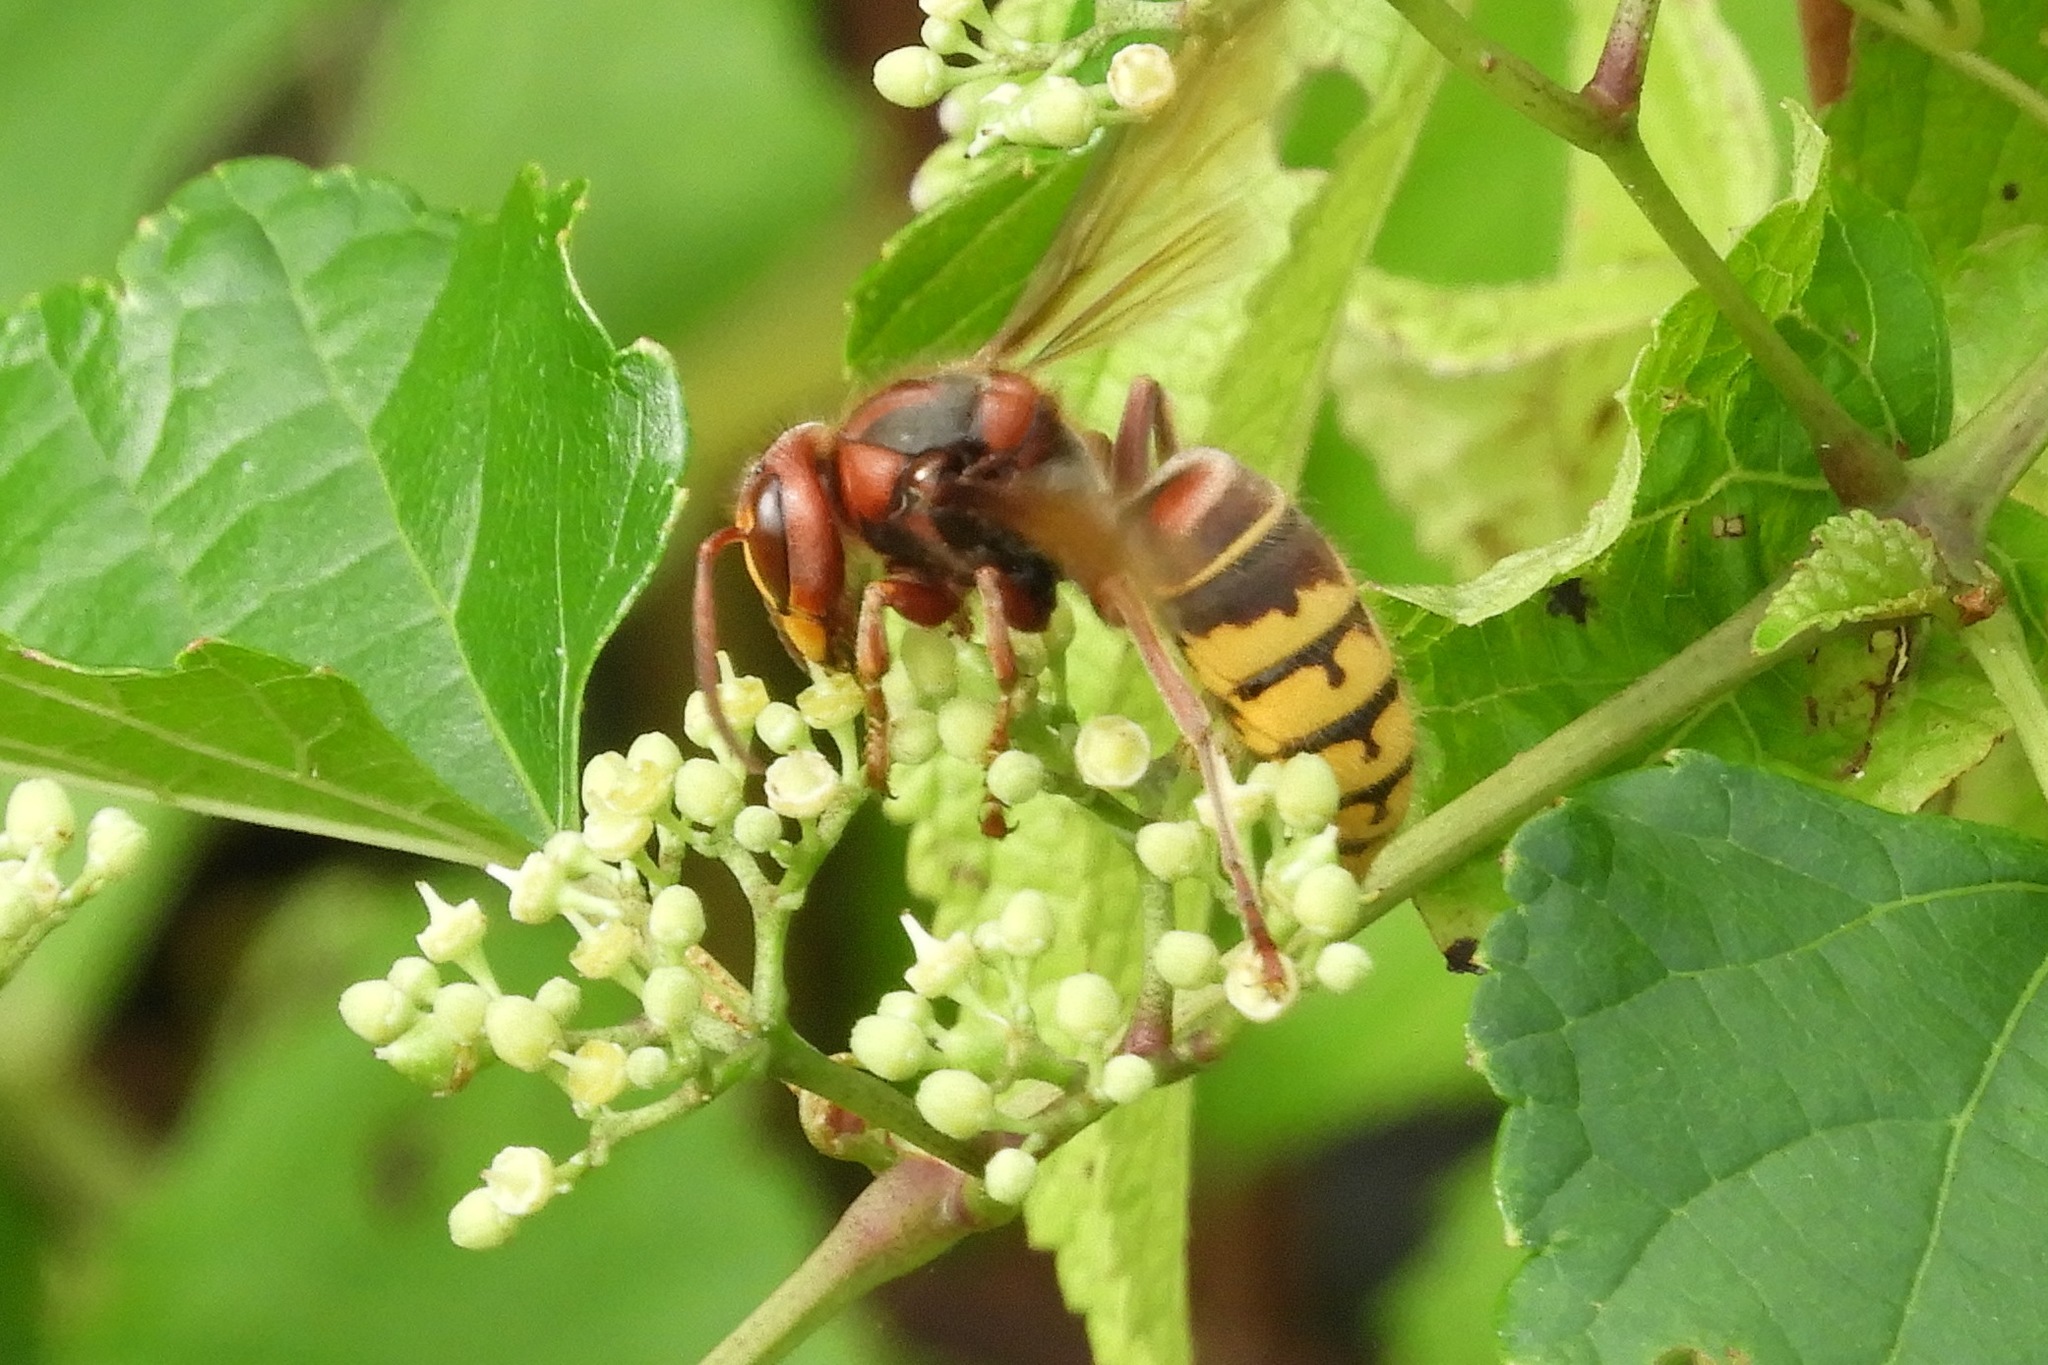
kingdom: Animalia
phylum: Arthropoda
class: Insecta
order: Hymenoptera
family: Vespidae
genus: Vespa
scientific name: Vespa crabro
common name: Hornet
